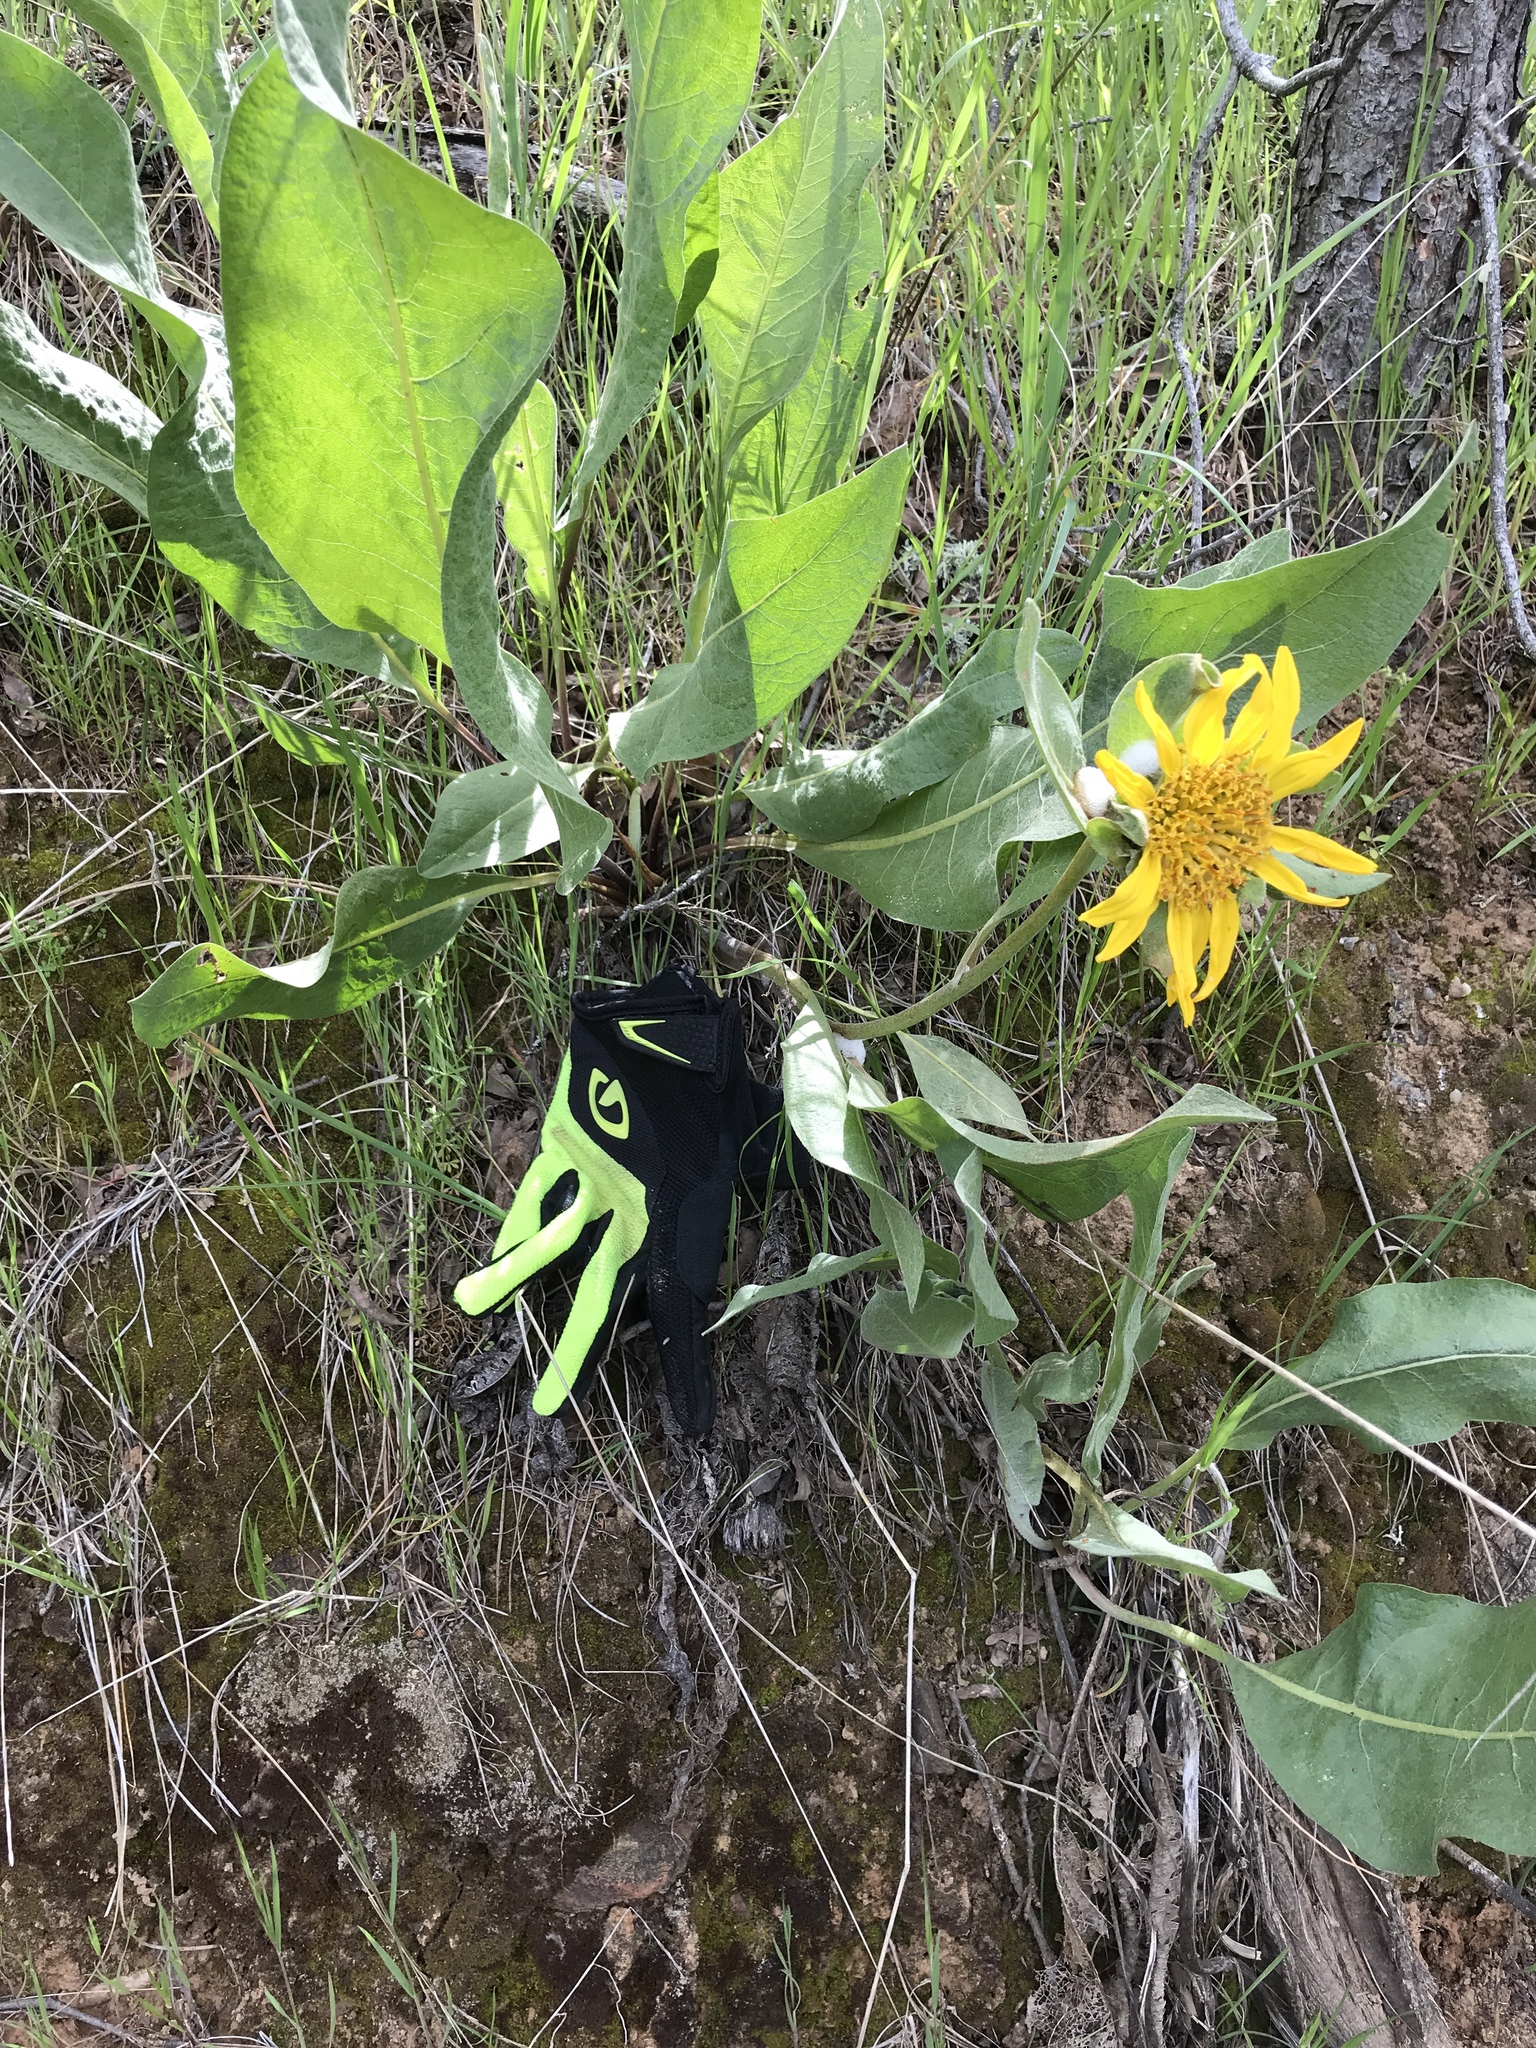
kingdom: Plantae
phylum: Tracheophyta
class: Magnoliopsida
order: Asterales
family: Asteraceae
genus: Wyethia
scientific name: Wyethia glabra
